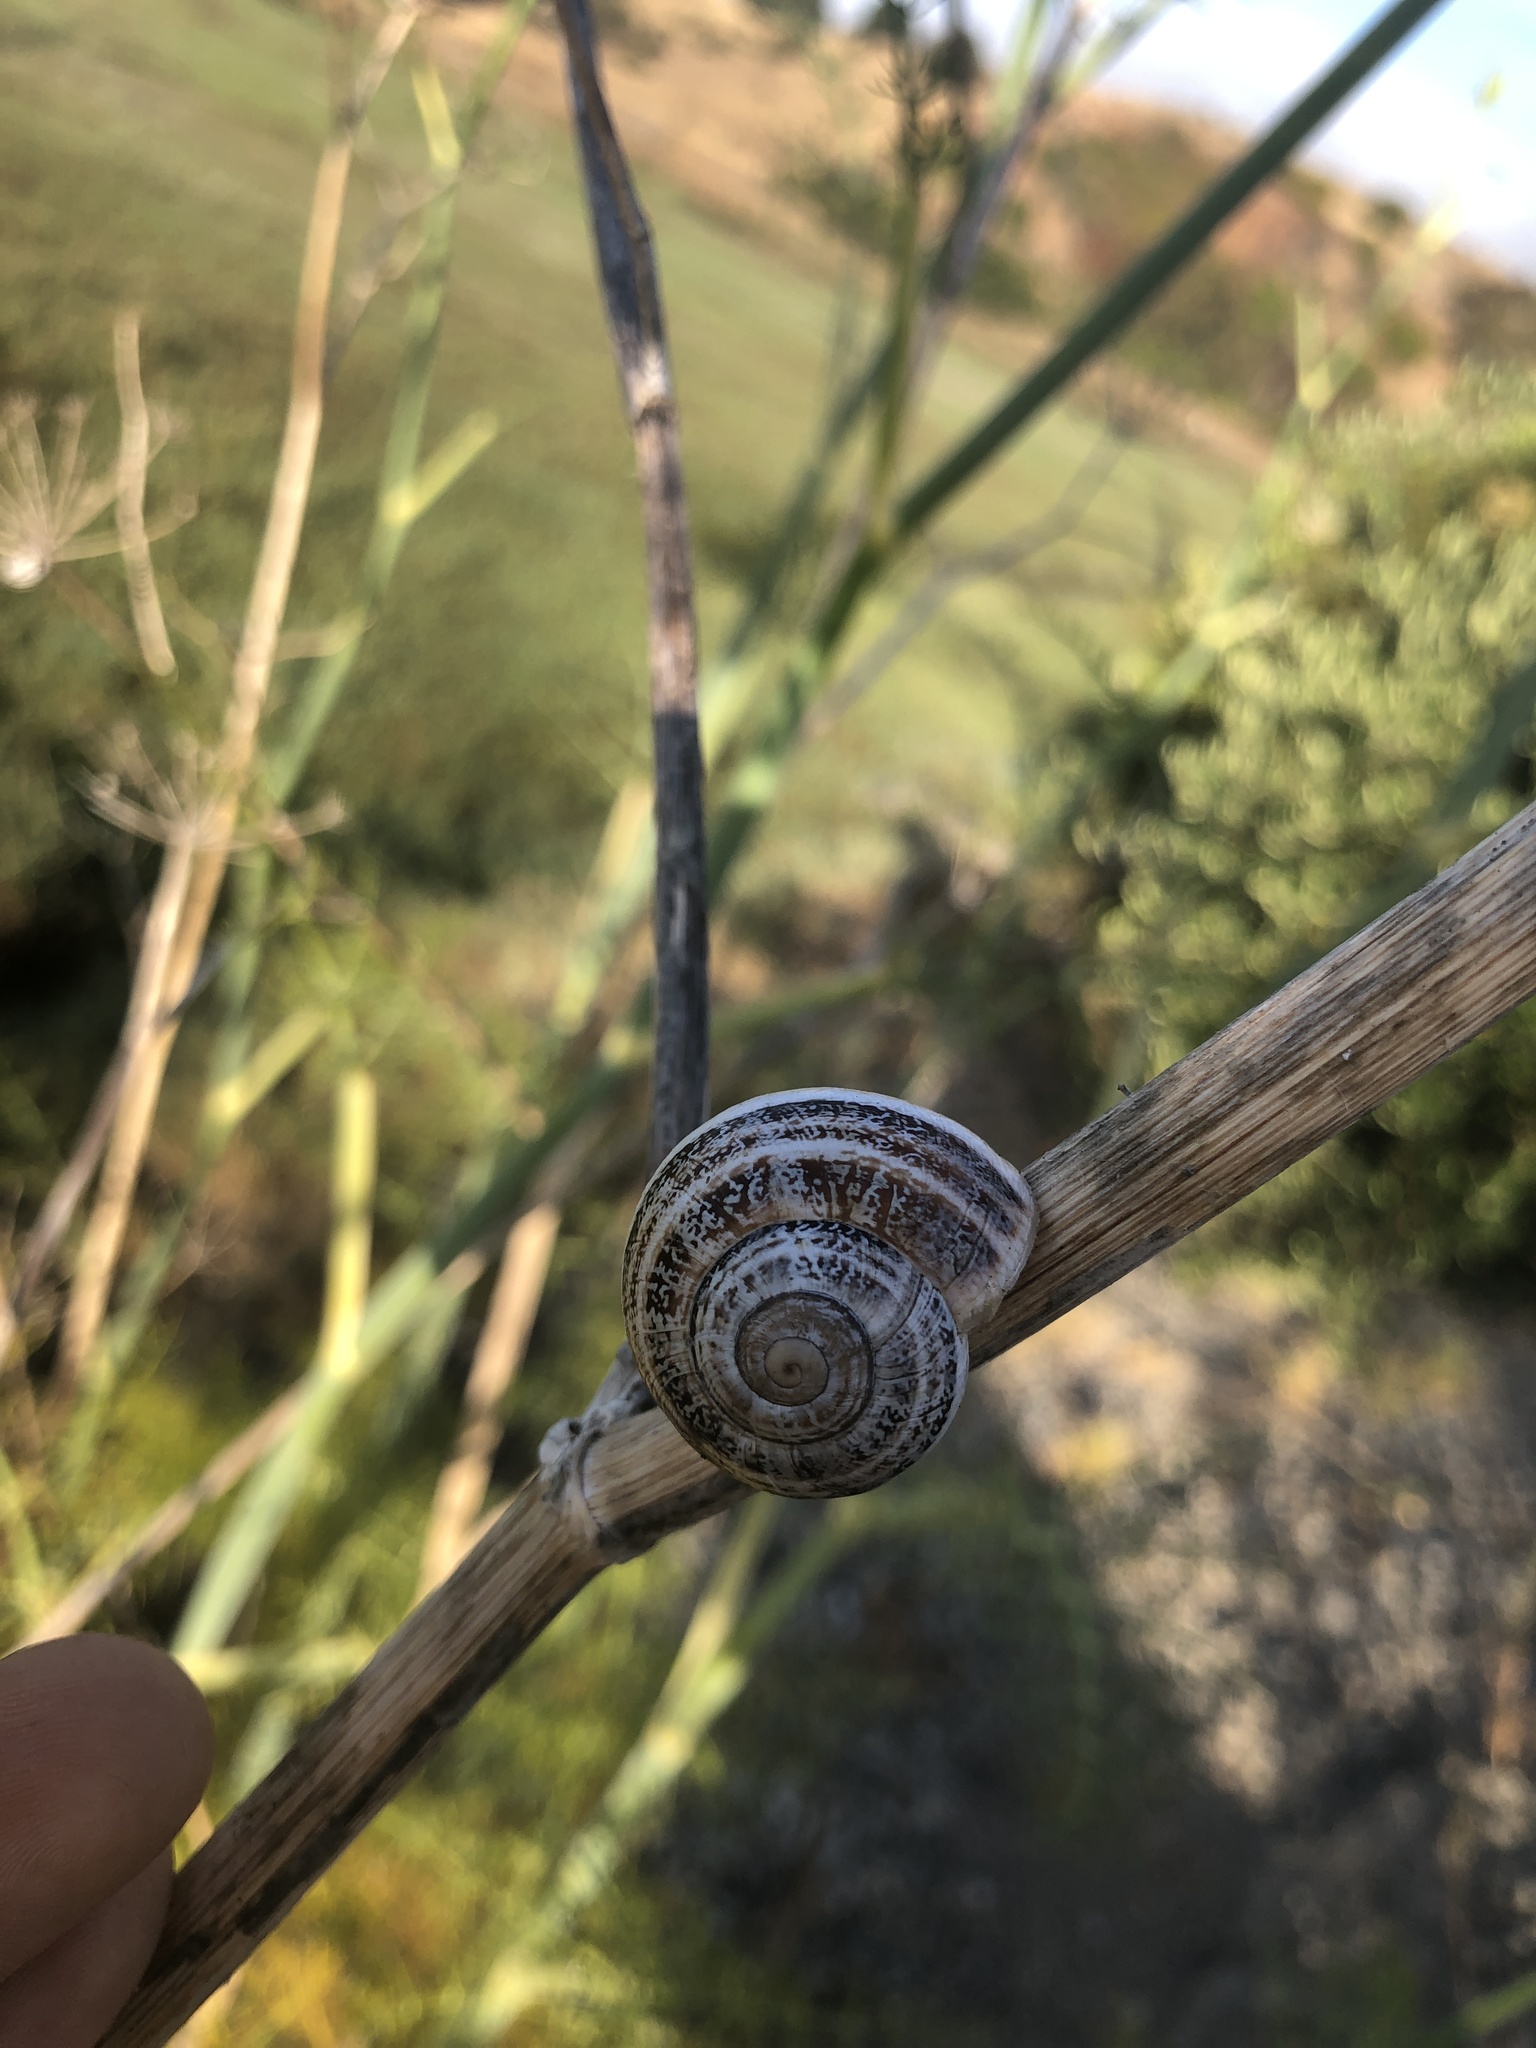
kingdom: Animalia
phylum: Mollusca
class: Gastropoda
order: Stylommatophora
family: Helicidae
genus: Otala
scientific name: Otala lactea
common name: Milk snail
